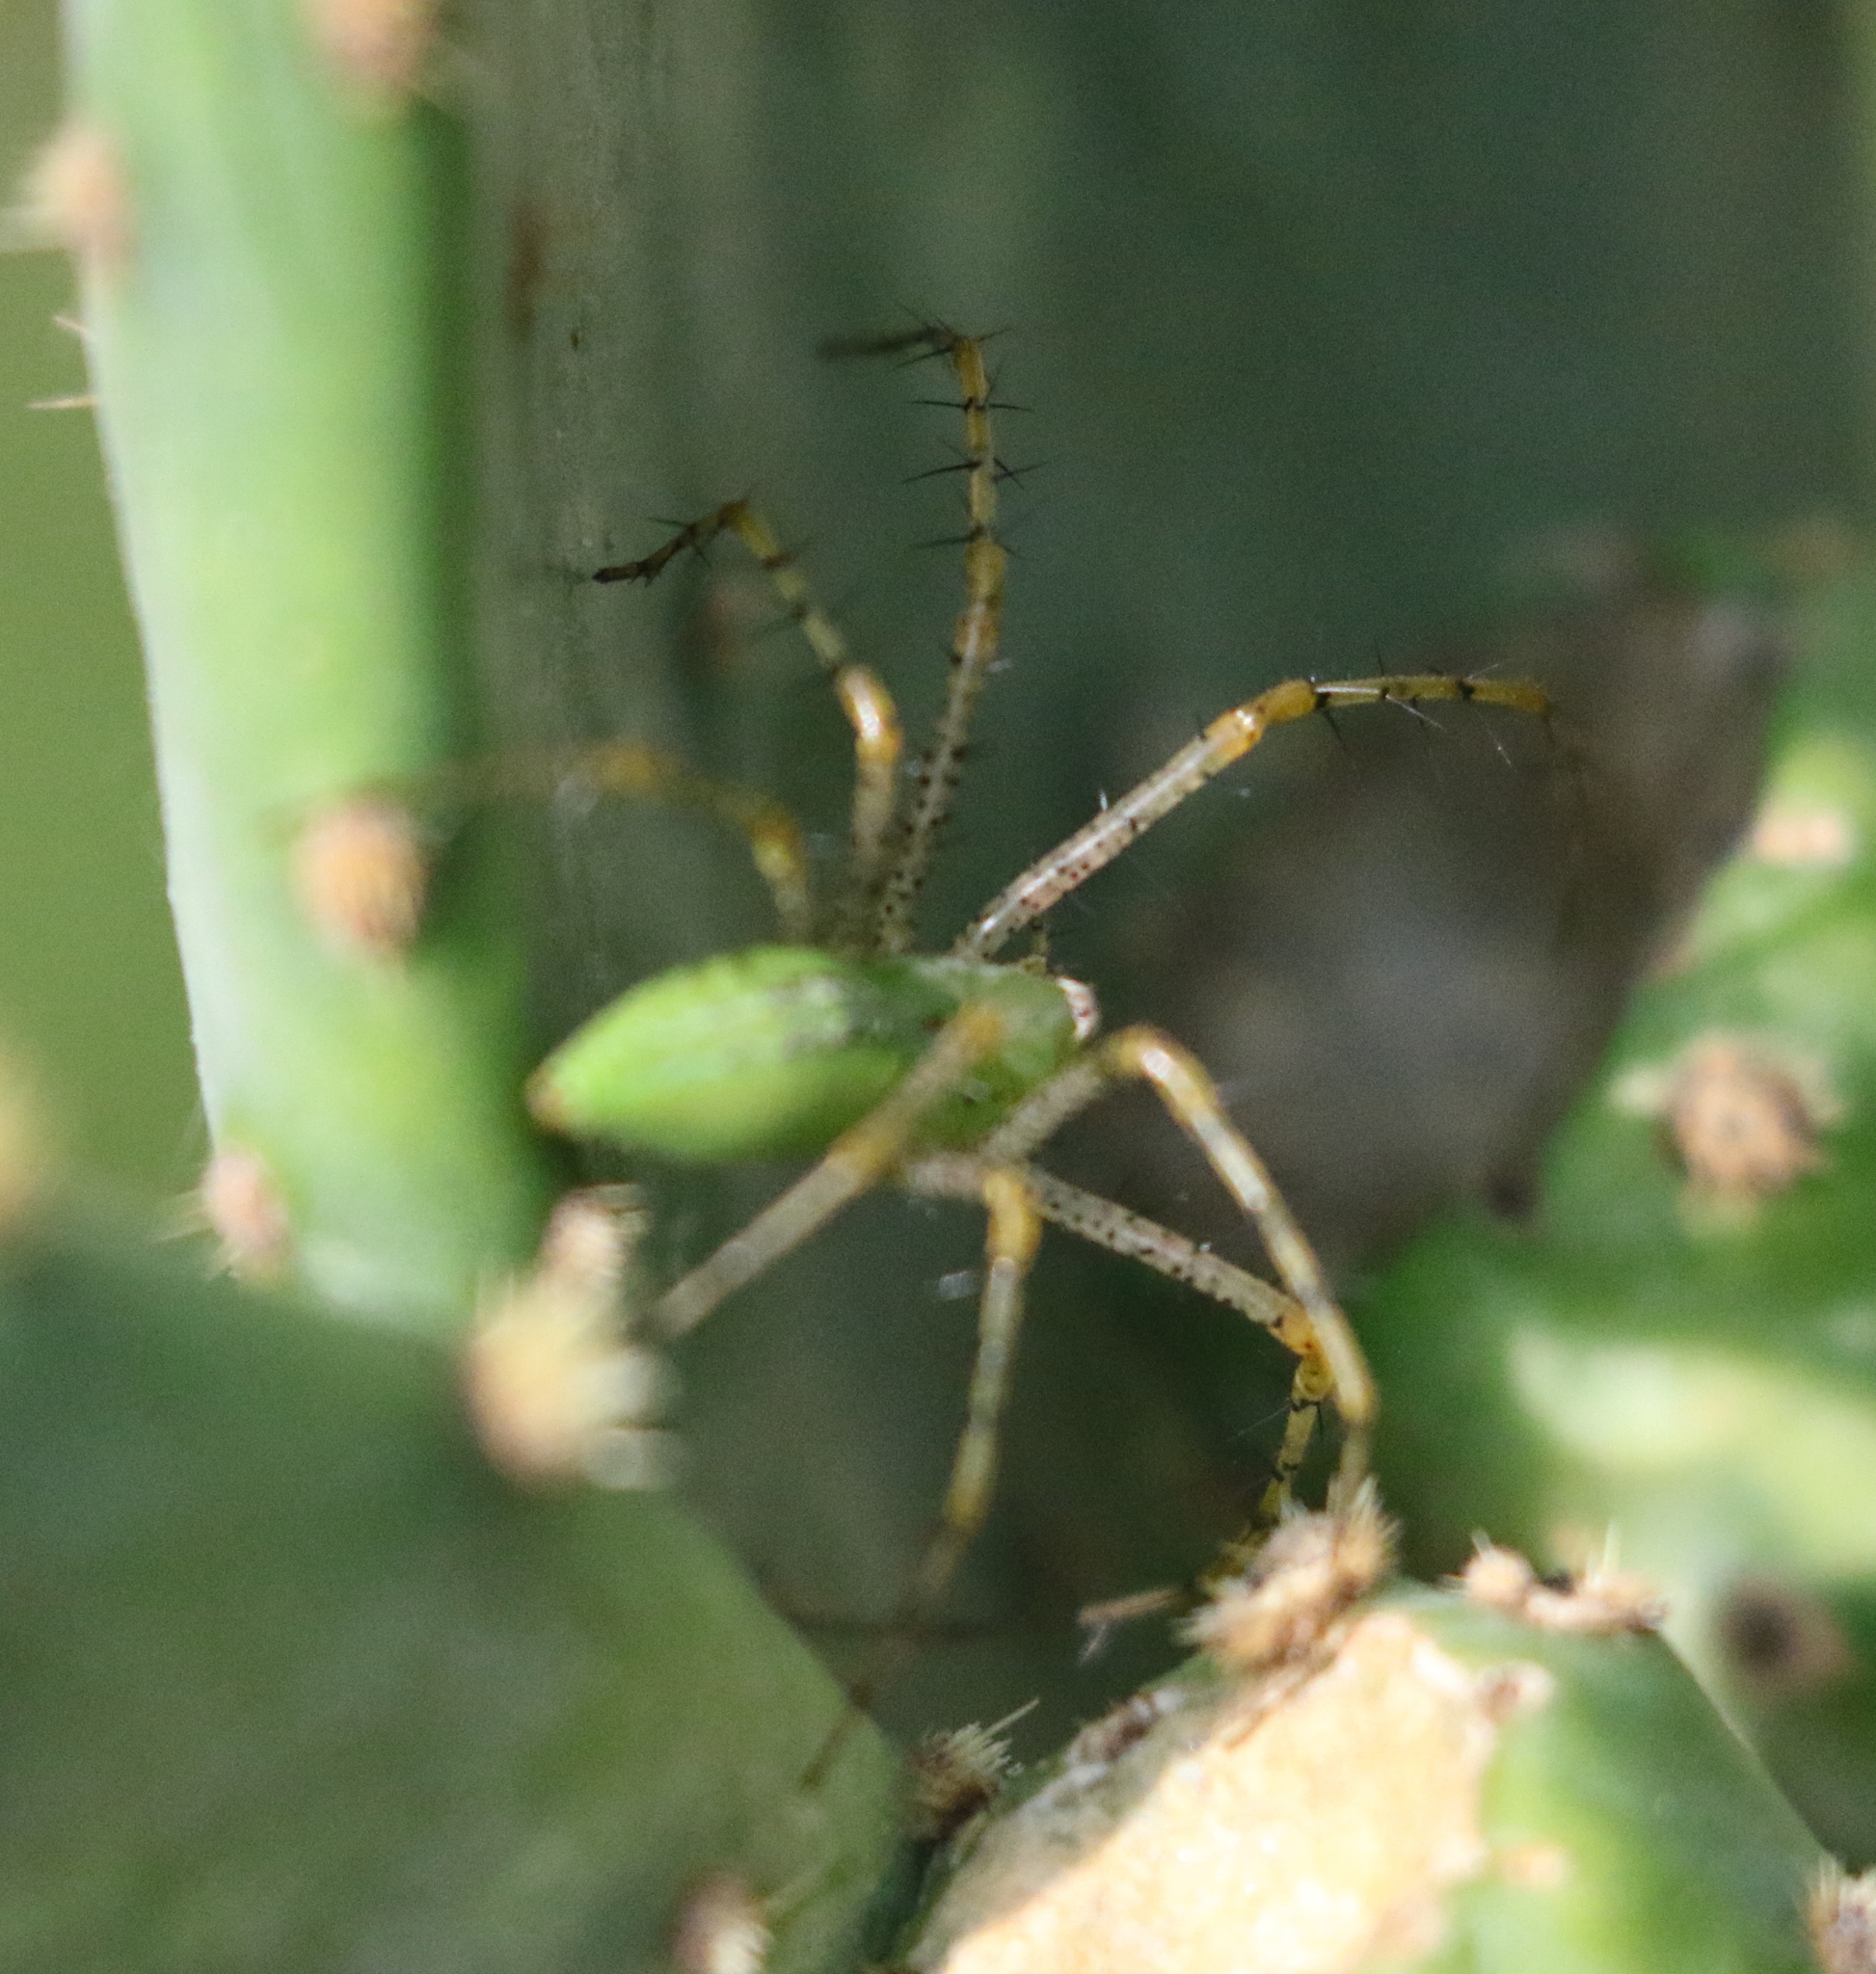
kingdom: Animalia
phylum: Arthropoda
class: Arachnida
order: Araneae
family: Oxyopidae
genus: Peucetia
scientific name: Peucetia viridans
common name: Lynx spiders
